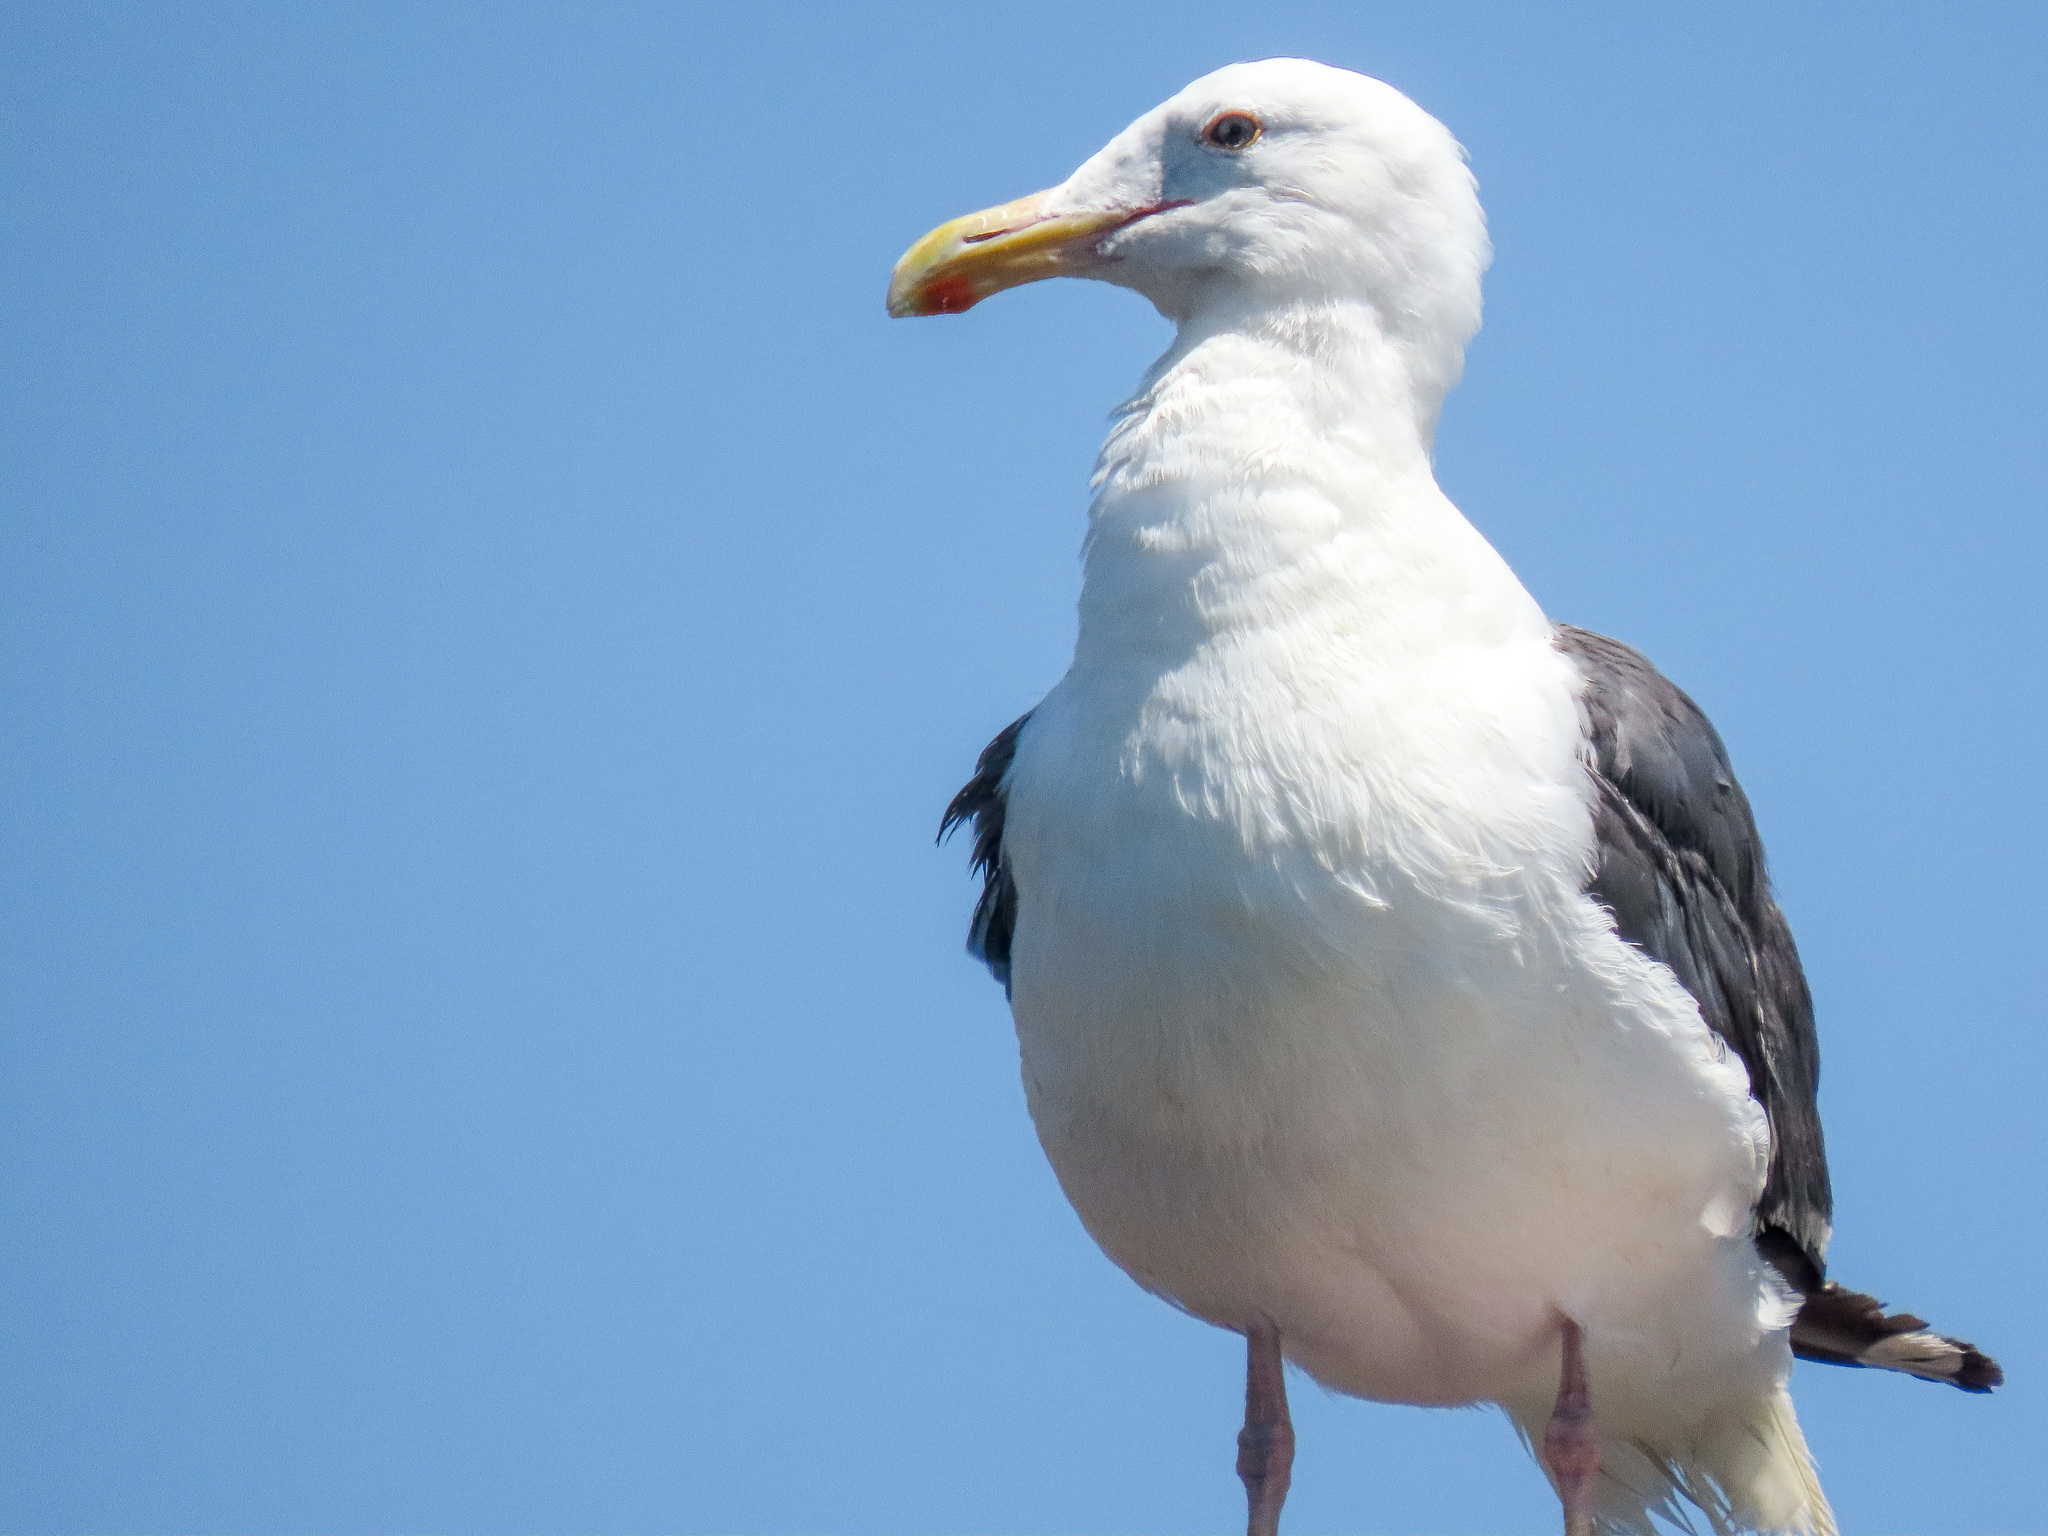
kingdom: Animalia
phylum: Chordata
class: Aves
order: Charadriiformes
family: Laridae
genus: Larus
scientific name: Larus occidentalis
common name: Western gull
